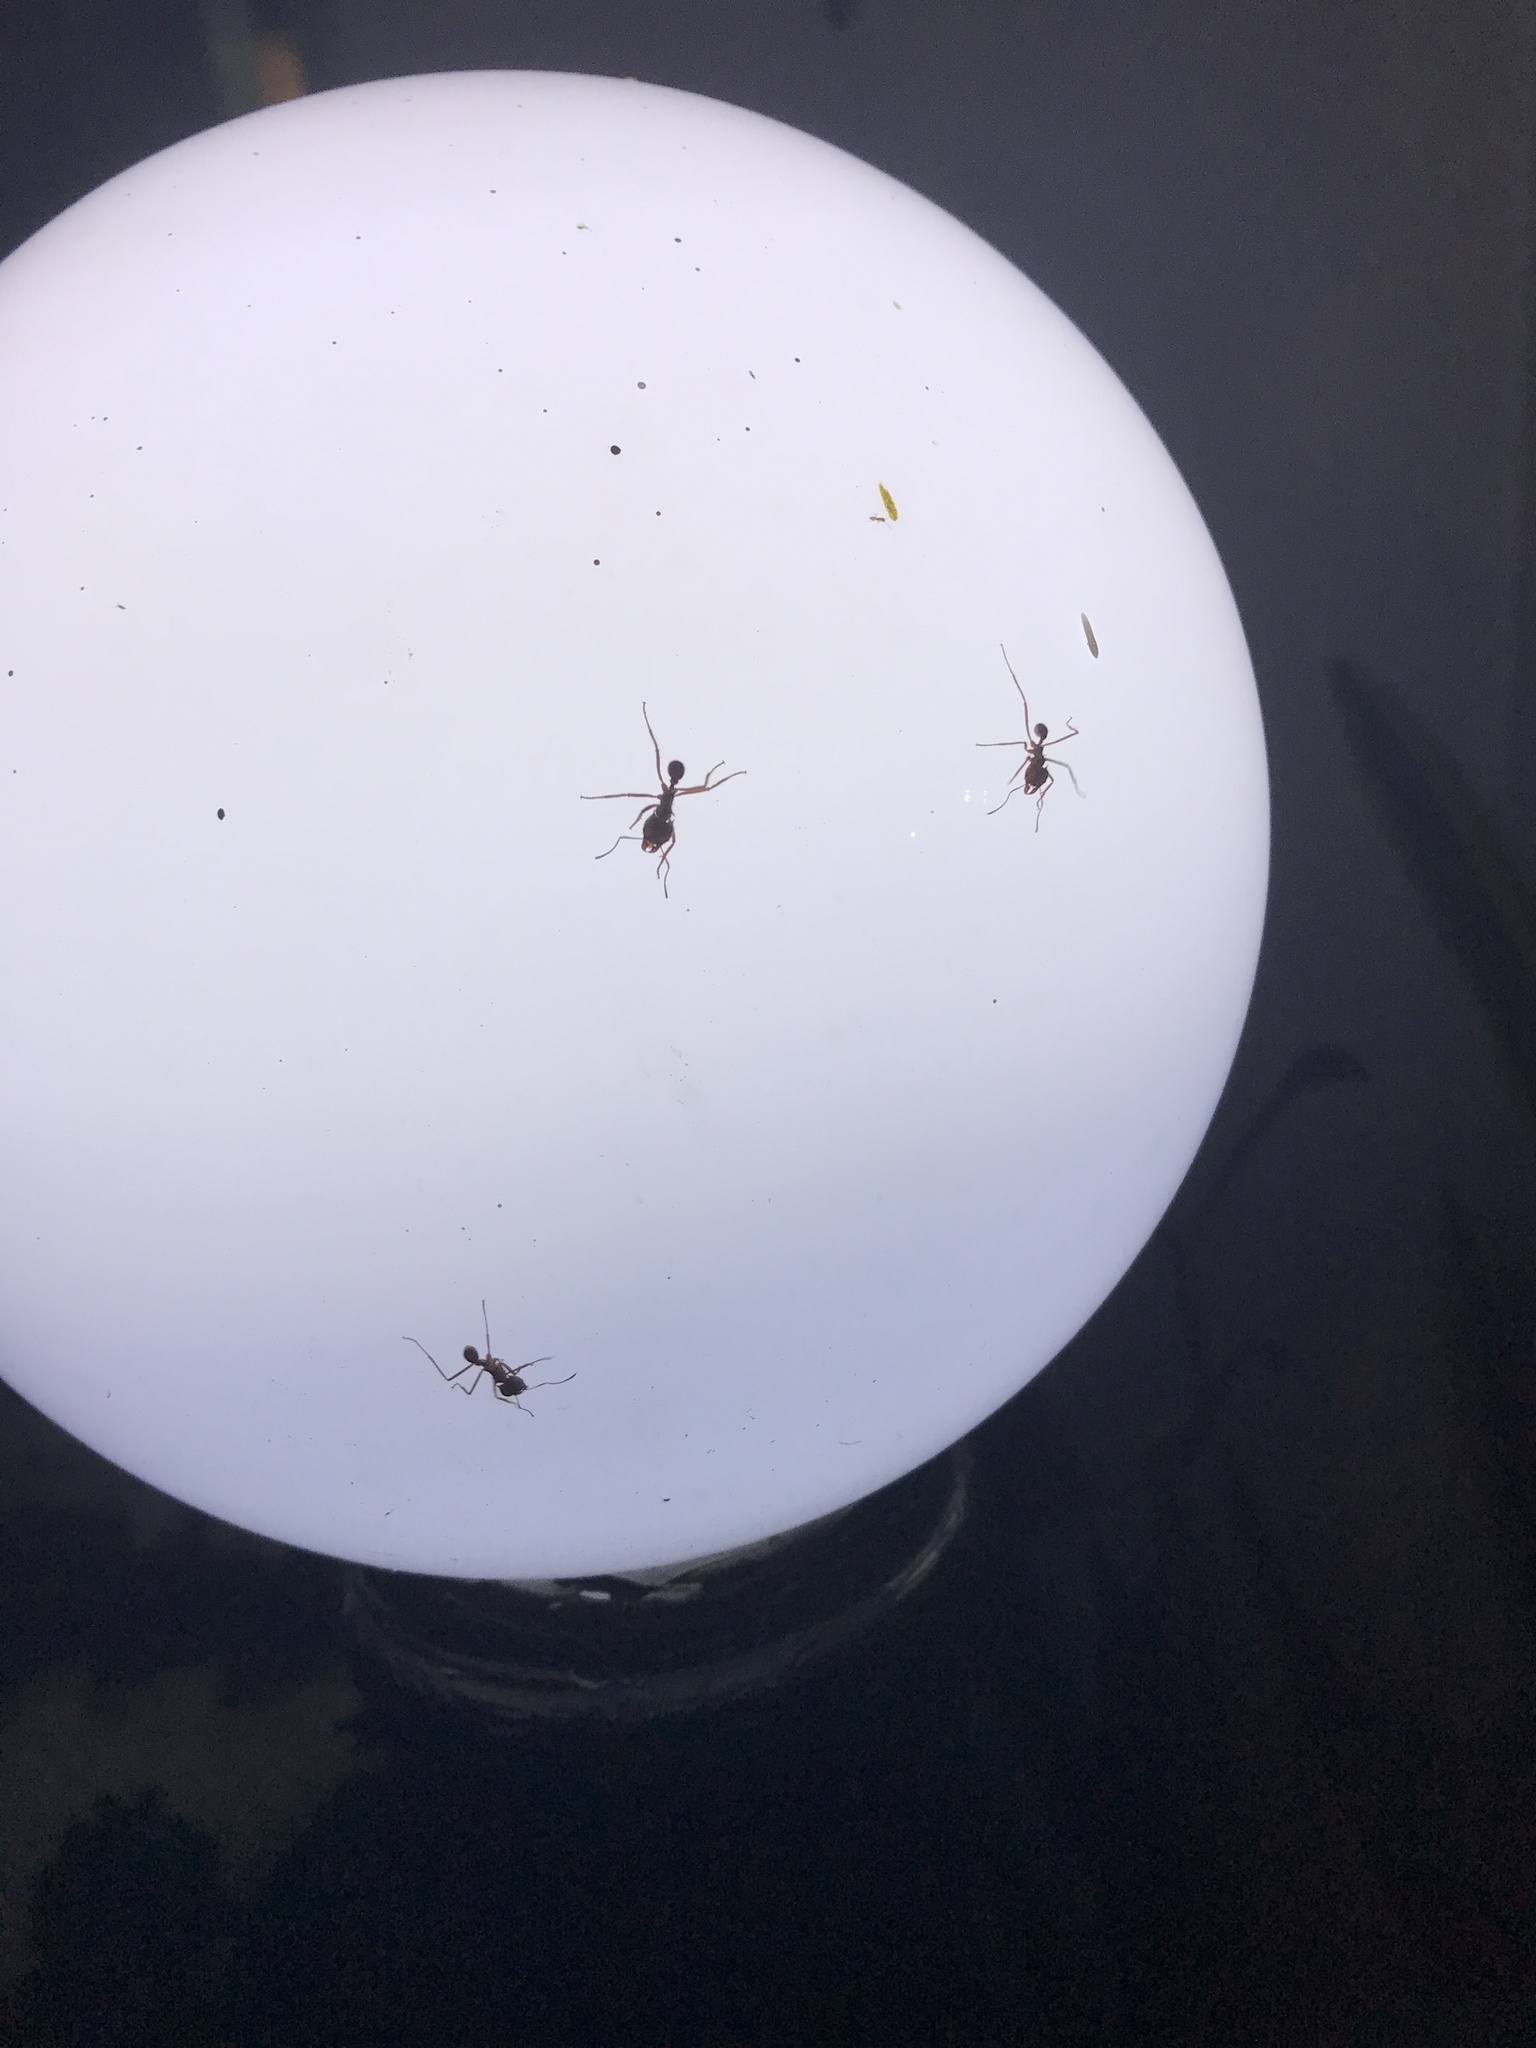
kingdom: Animalia
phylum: Arthropoda
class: Insecta
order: Hymenoptera
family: Formicidae
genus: Atta
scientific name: Atta mexicana
